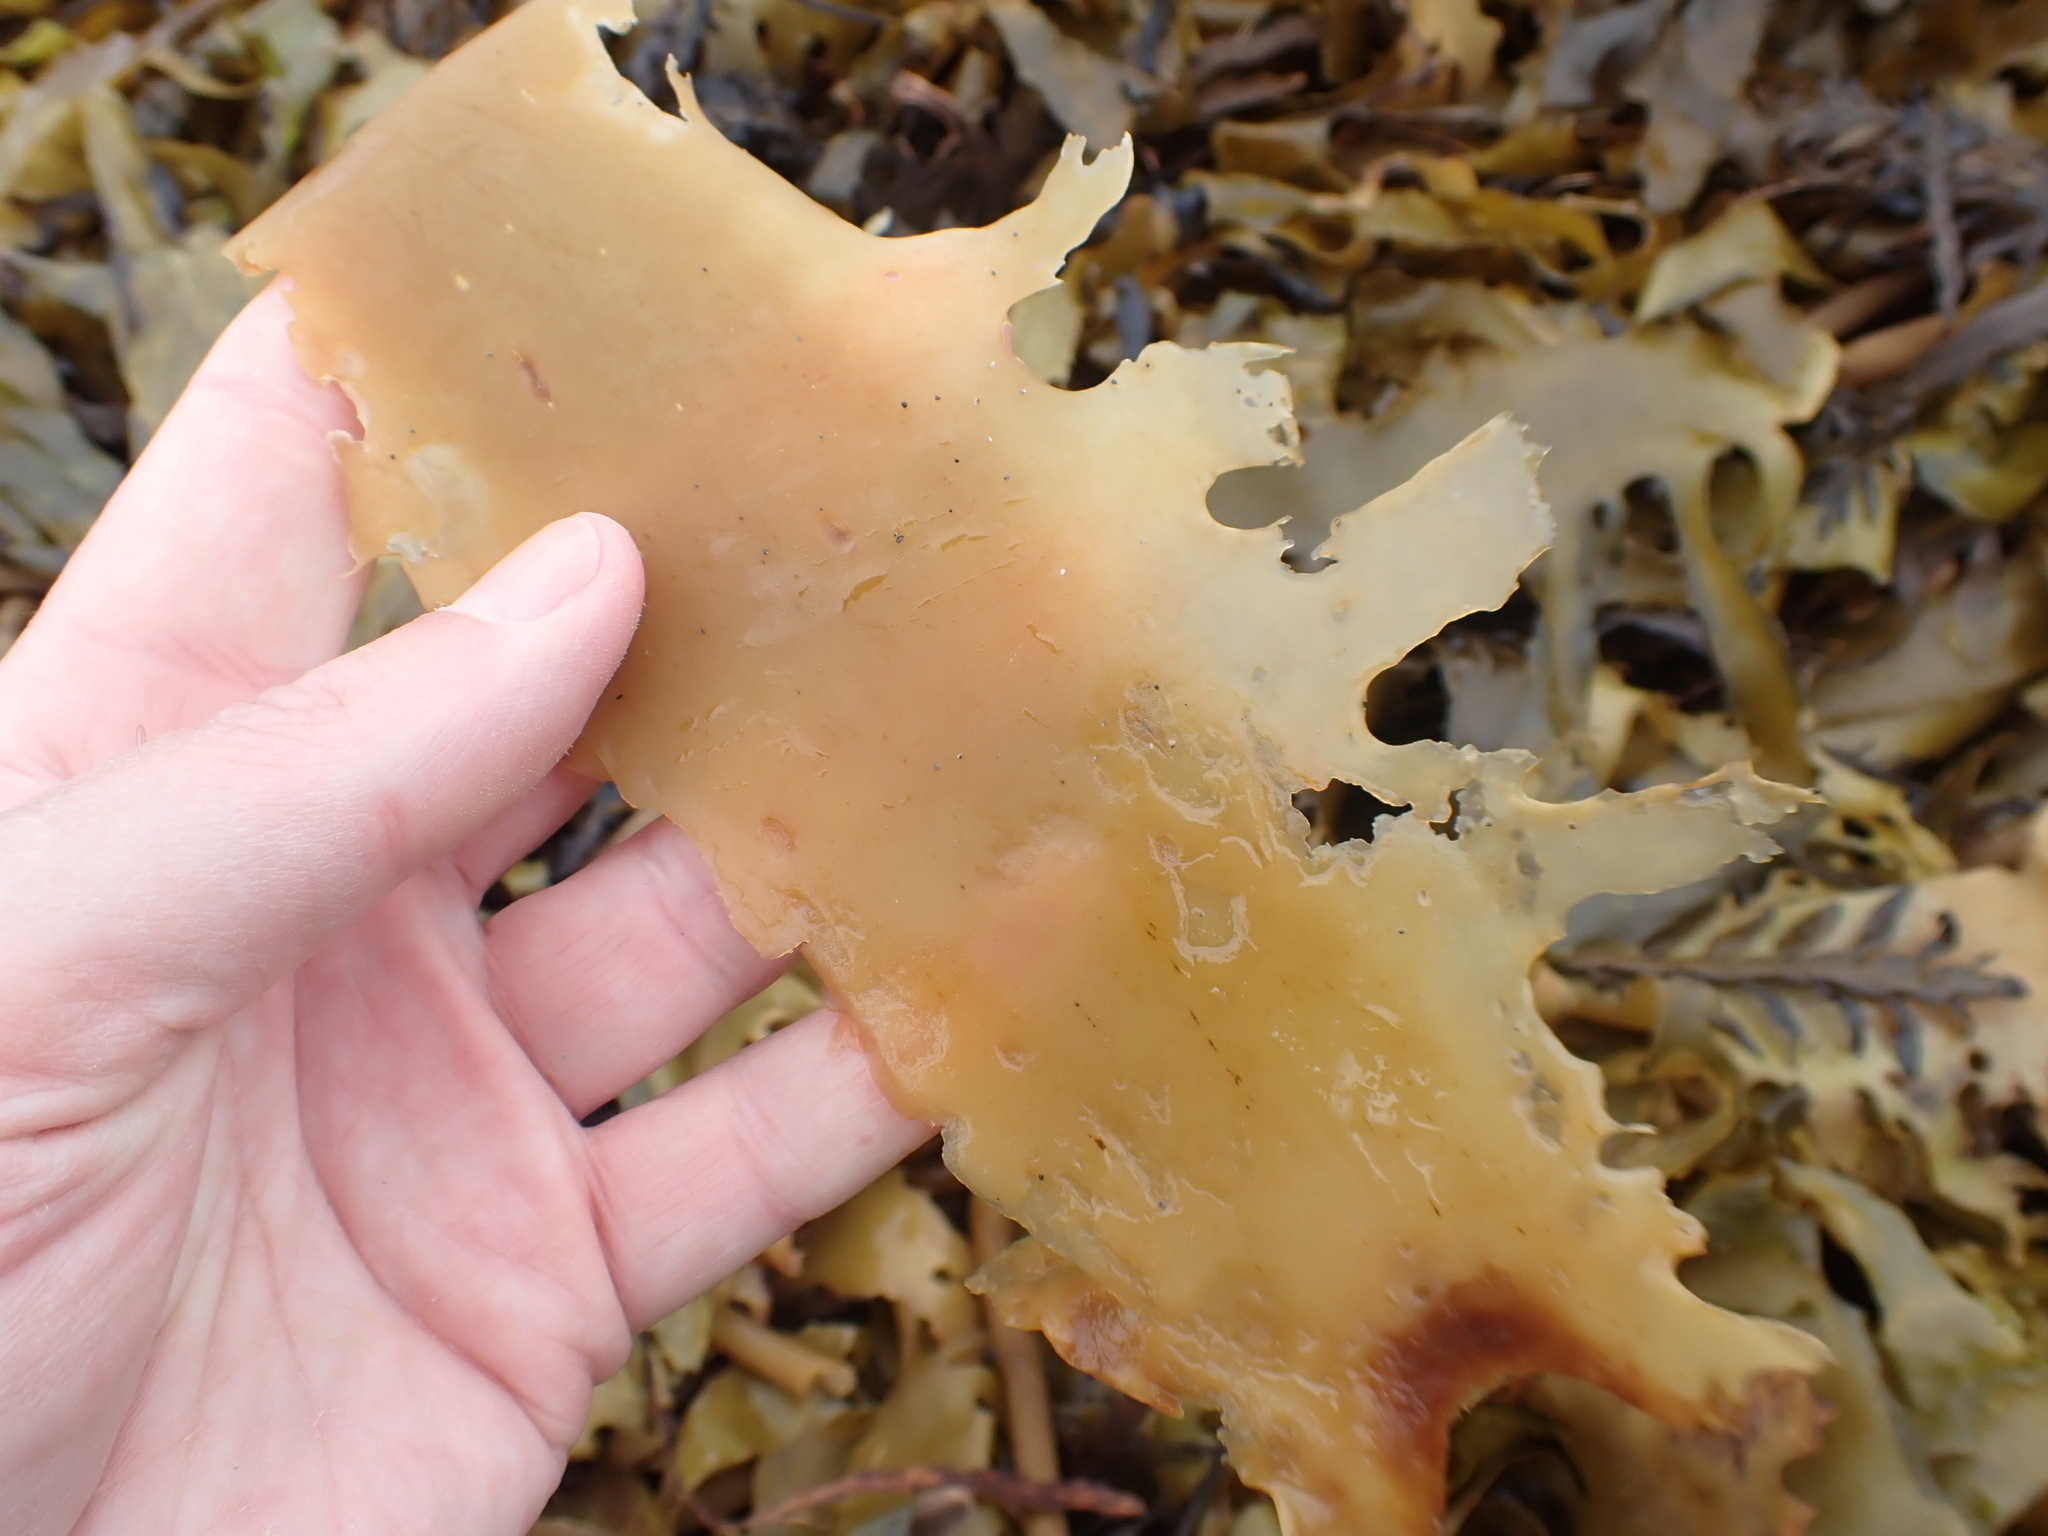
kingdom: Chromista
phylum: Ochrophyta
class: Phaeophyceae
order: Laminariales
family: Lessoniaceae
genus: Ecklonia
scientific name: Ecklonia radiata
